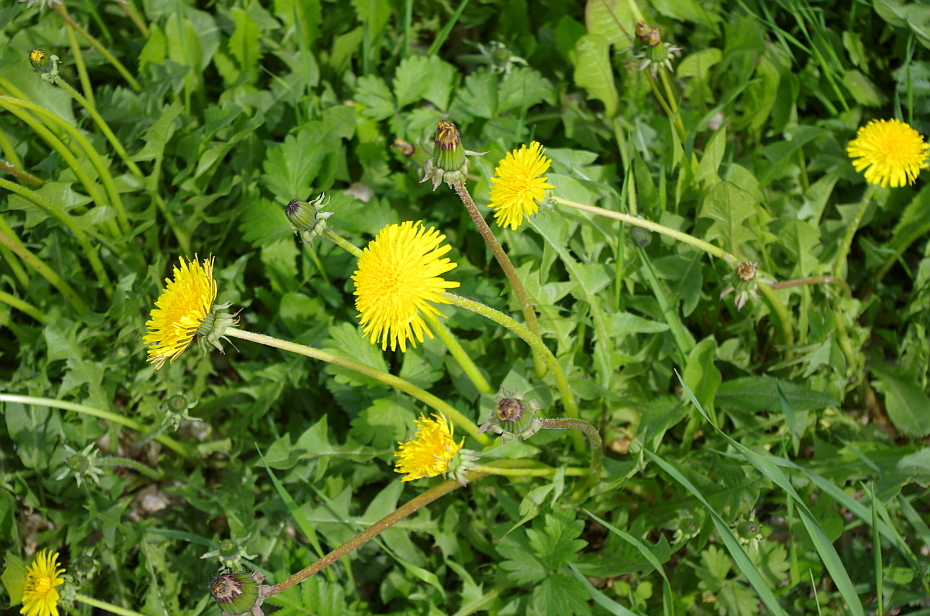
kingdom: Plantae
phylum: Tracheophyta
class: Magnoliopsida
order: Asterales
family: Asteraceae
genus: Taraxacum
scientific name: Taraxacum officinale
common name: Common dandelion
